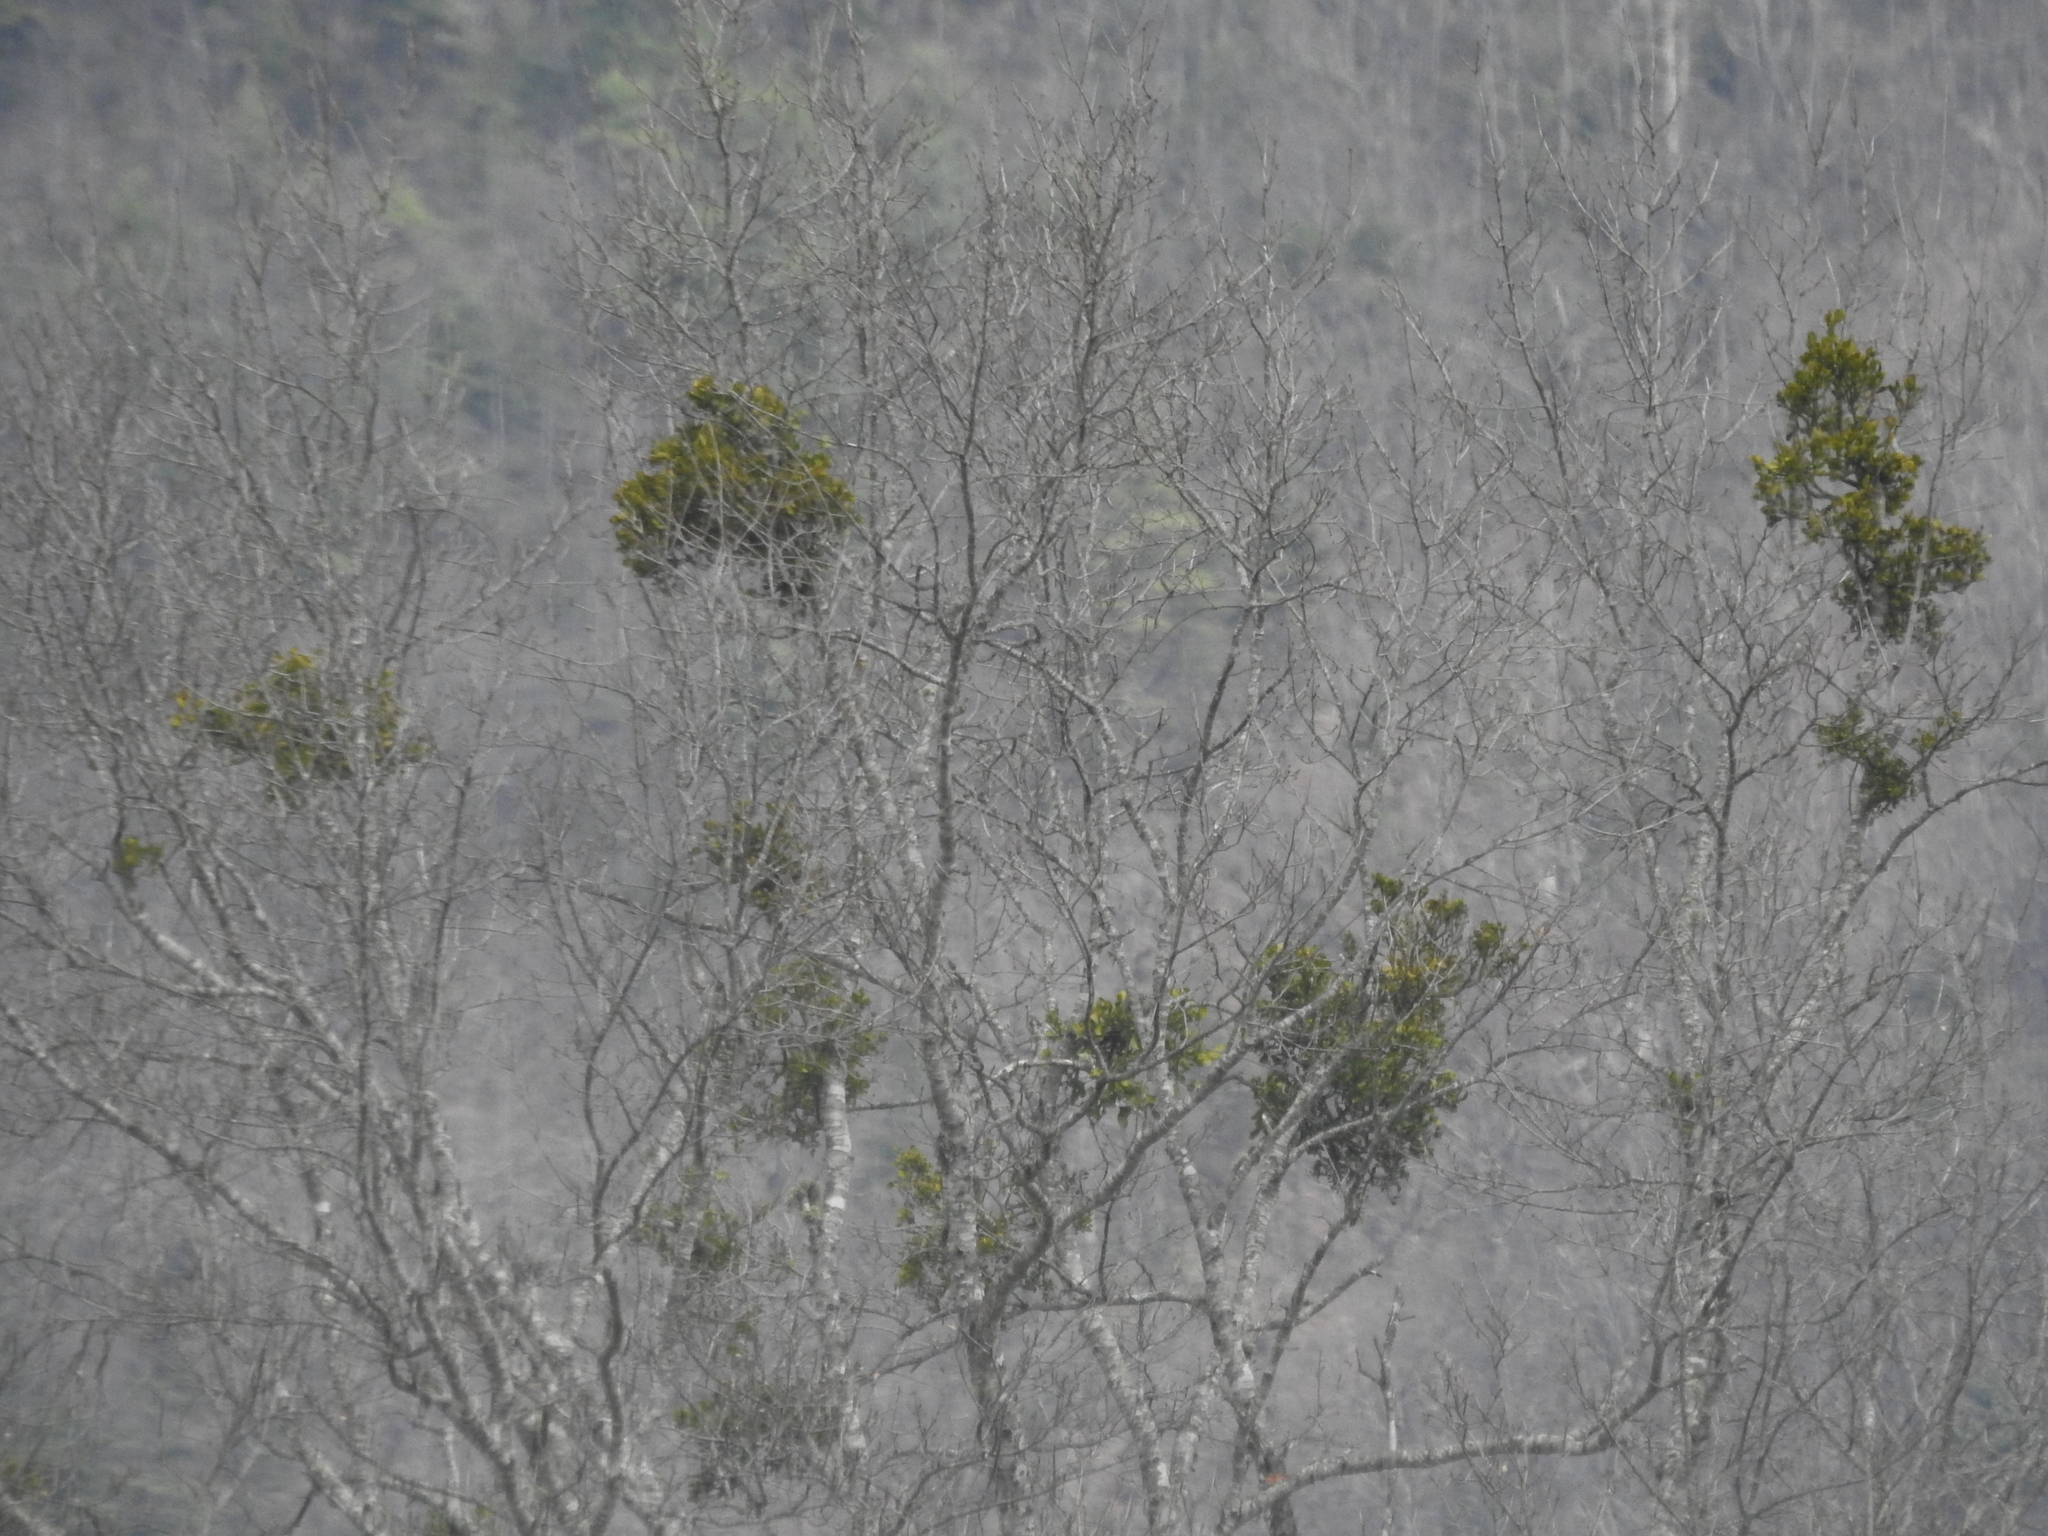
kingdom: Plantae
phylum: Tracheophyta
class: Magnoliopsida
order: Santalales
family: Viscaceae
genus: Phoradendron
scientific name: Phoradendron leucarpum
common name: Pacific mistletoe
